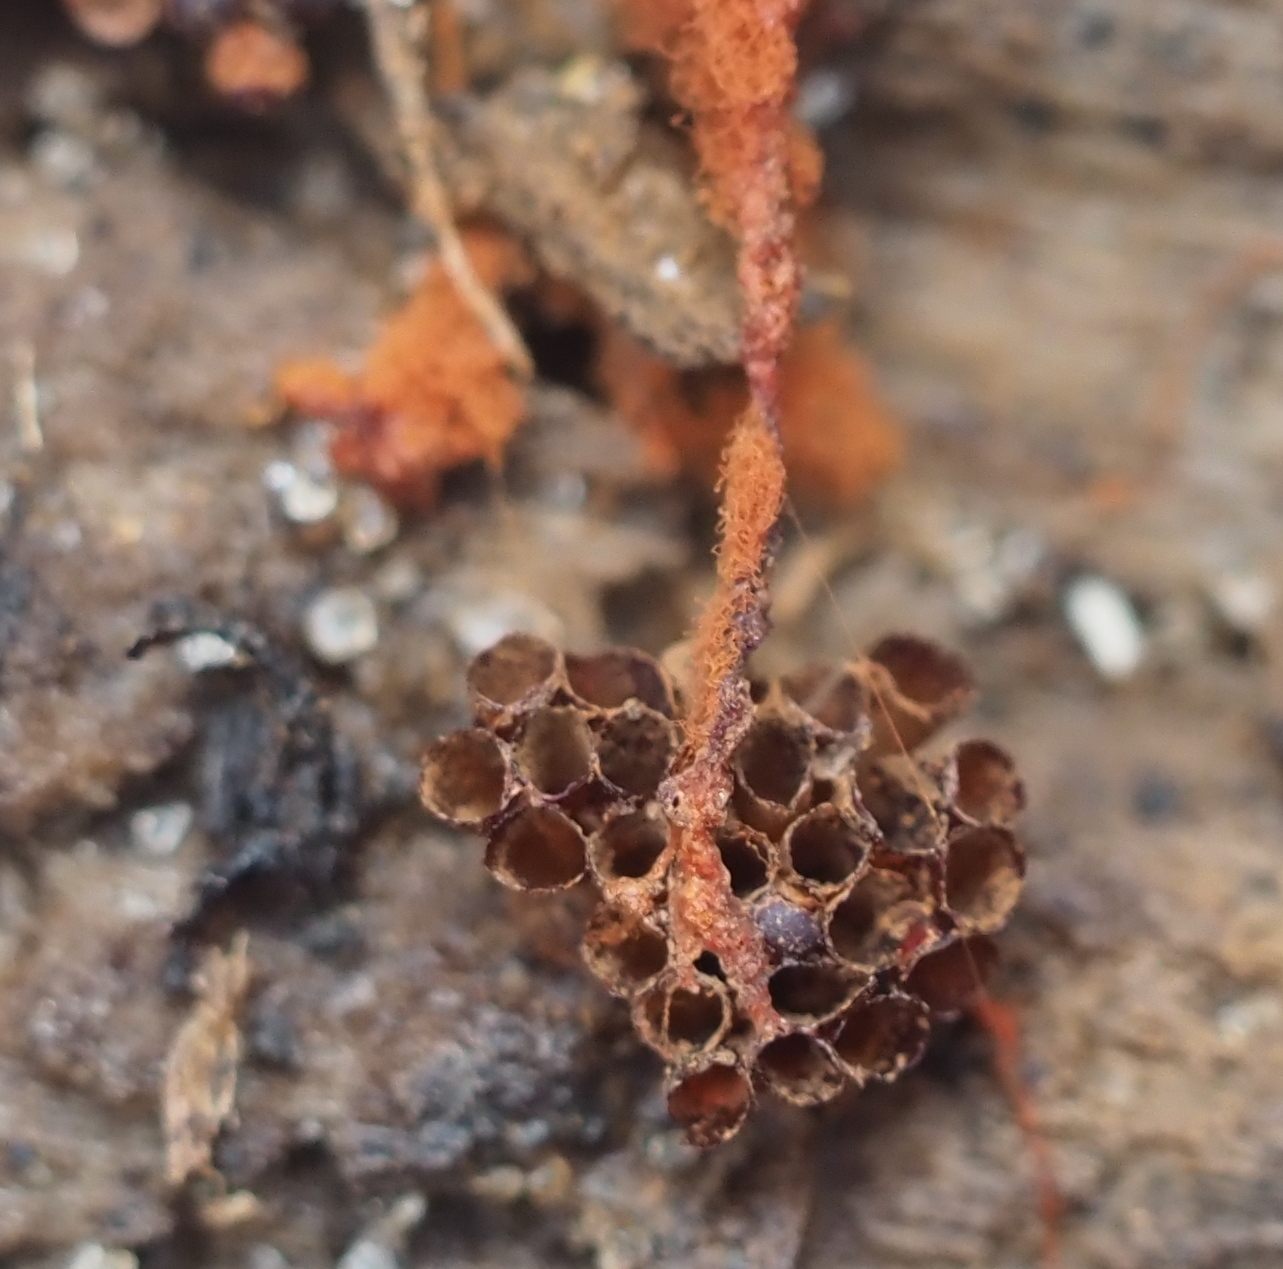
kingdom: Protozoa
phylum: Mycetozoa
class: Myxomycetes
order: Trichiales
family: Trichiaceae
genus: Metatrichia
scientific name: Metatrichia vesparia
